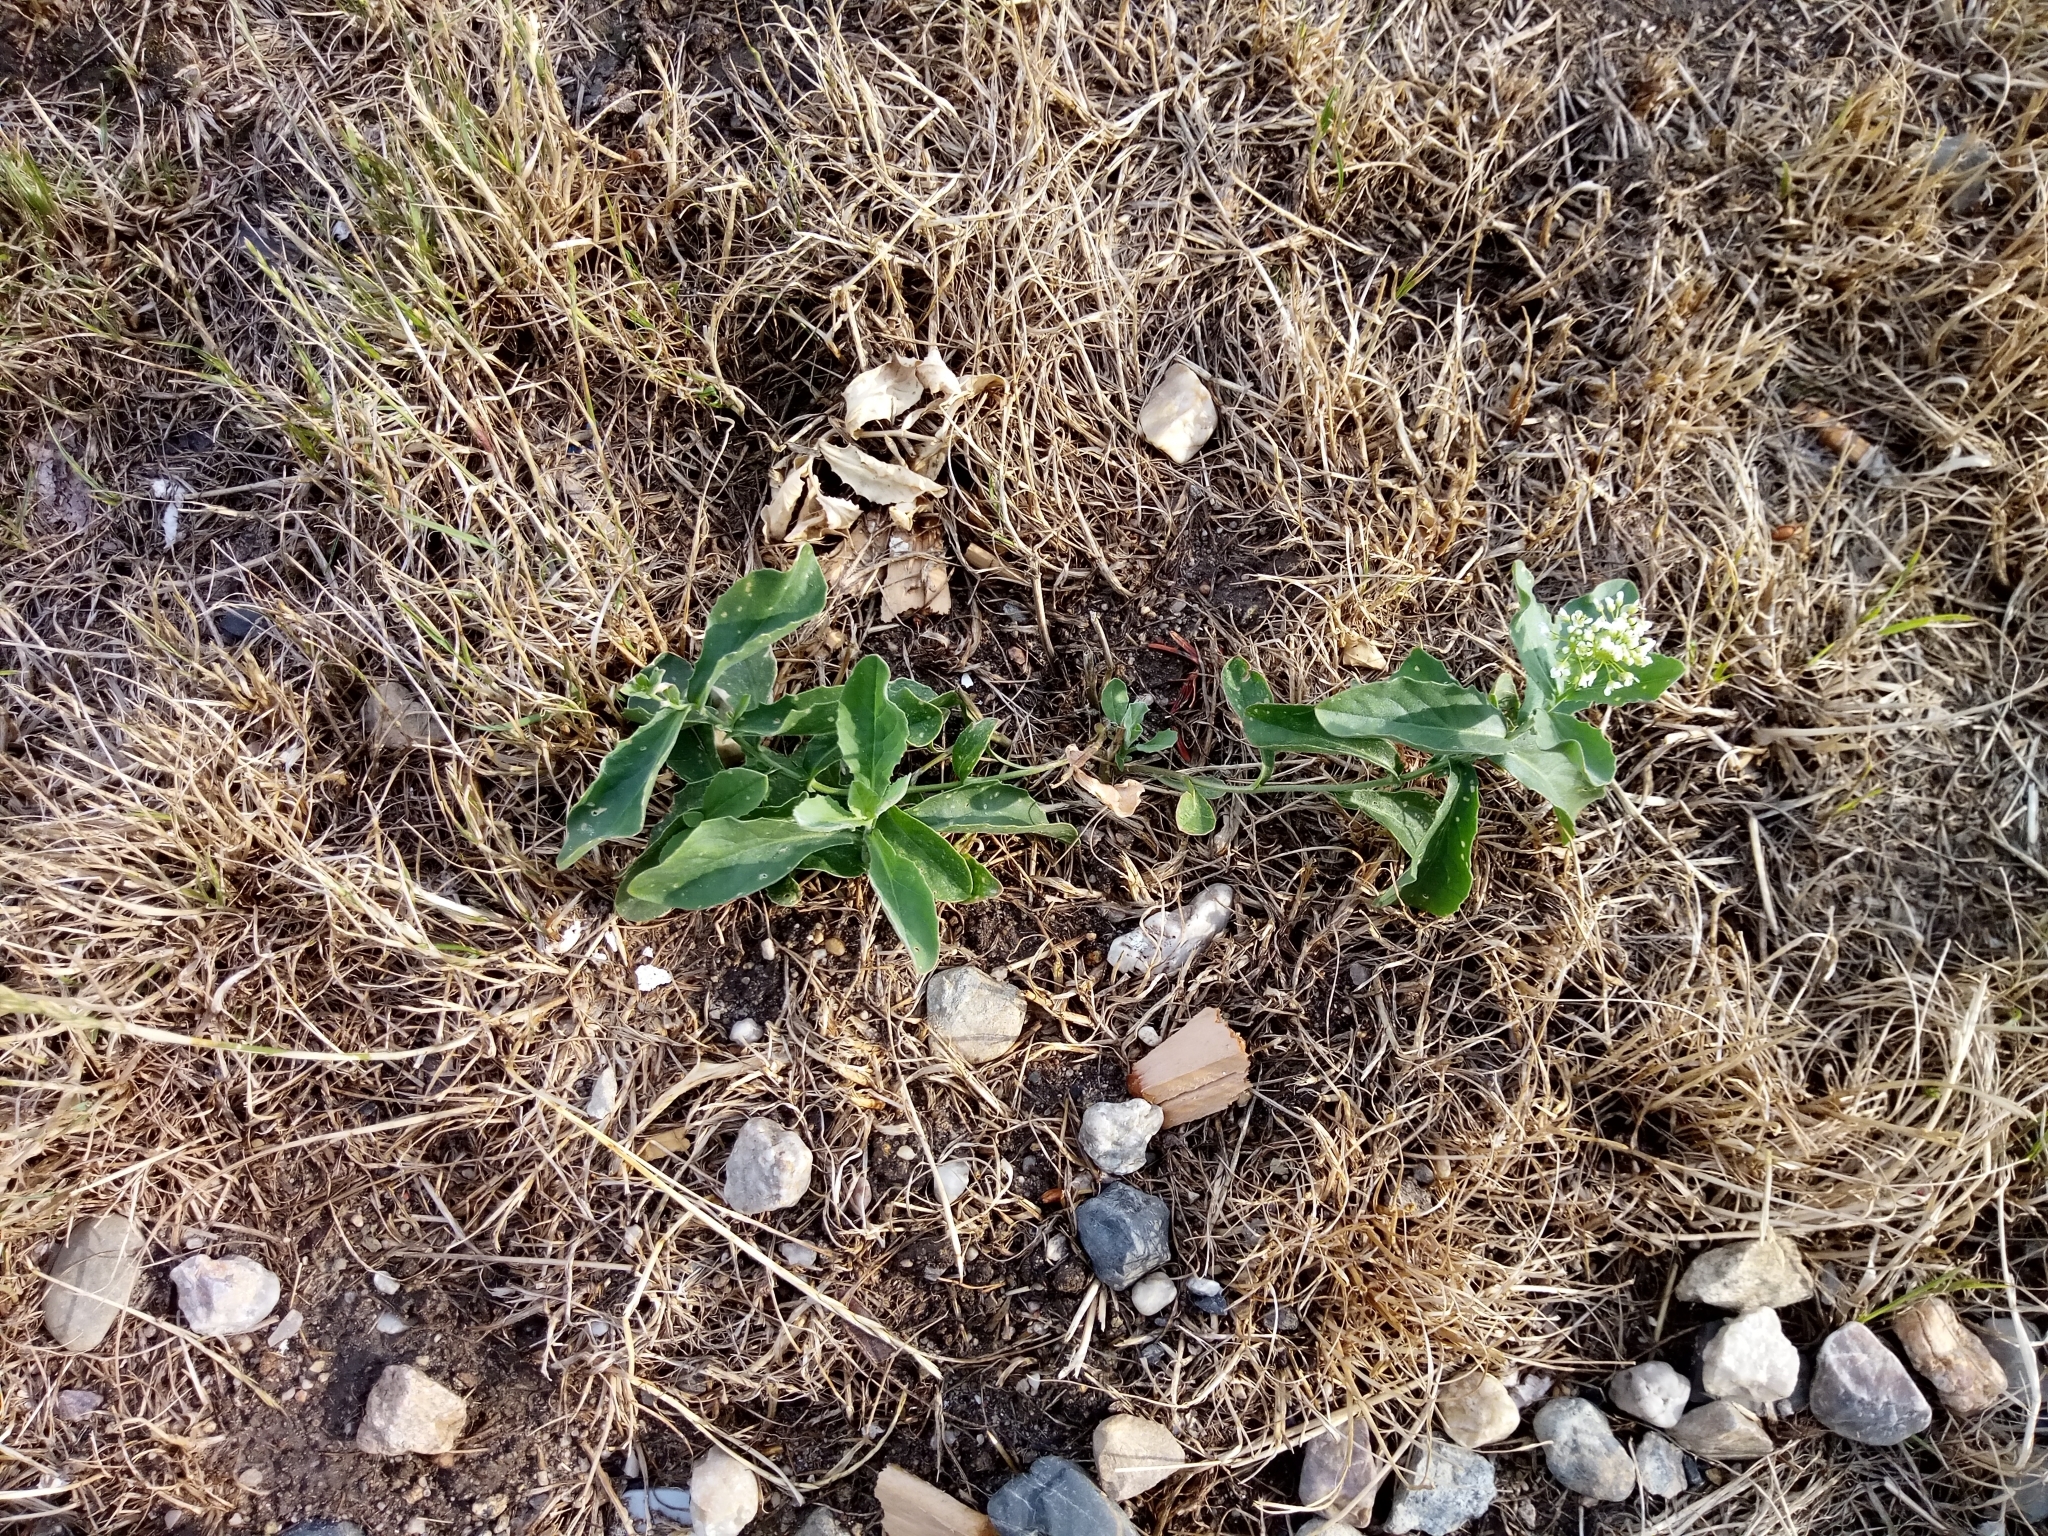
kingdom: Plantae
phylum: Tracheophyta
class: Magnoliopsida
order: Brassicales
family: Brassicaceae
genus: Lepidium
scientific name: Lepidium draba
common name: Hoary cress
